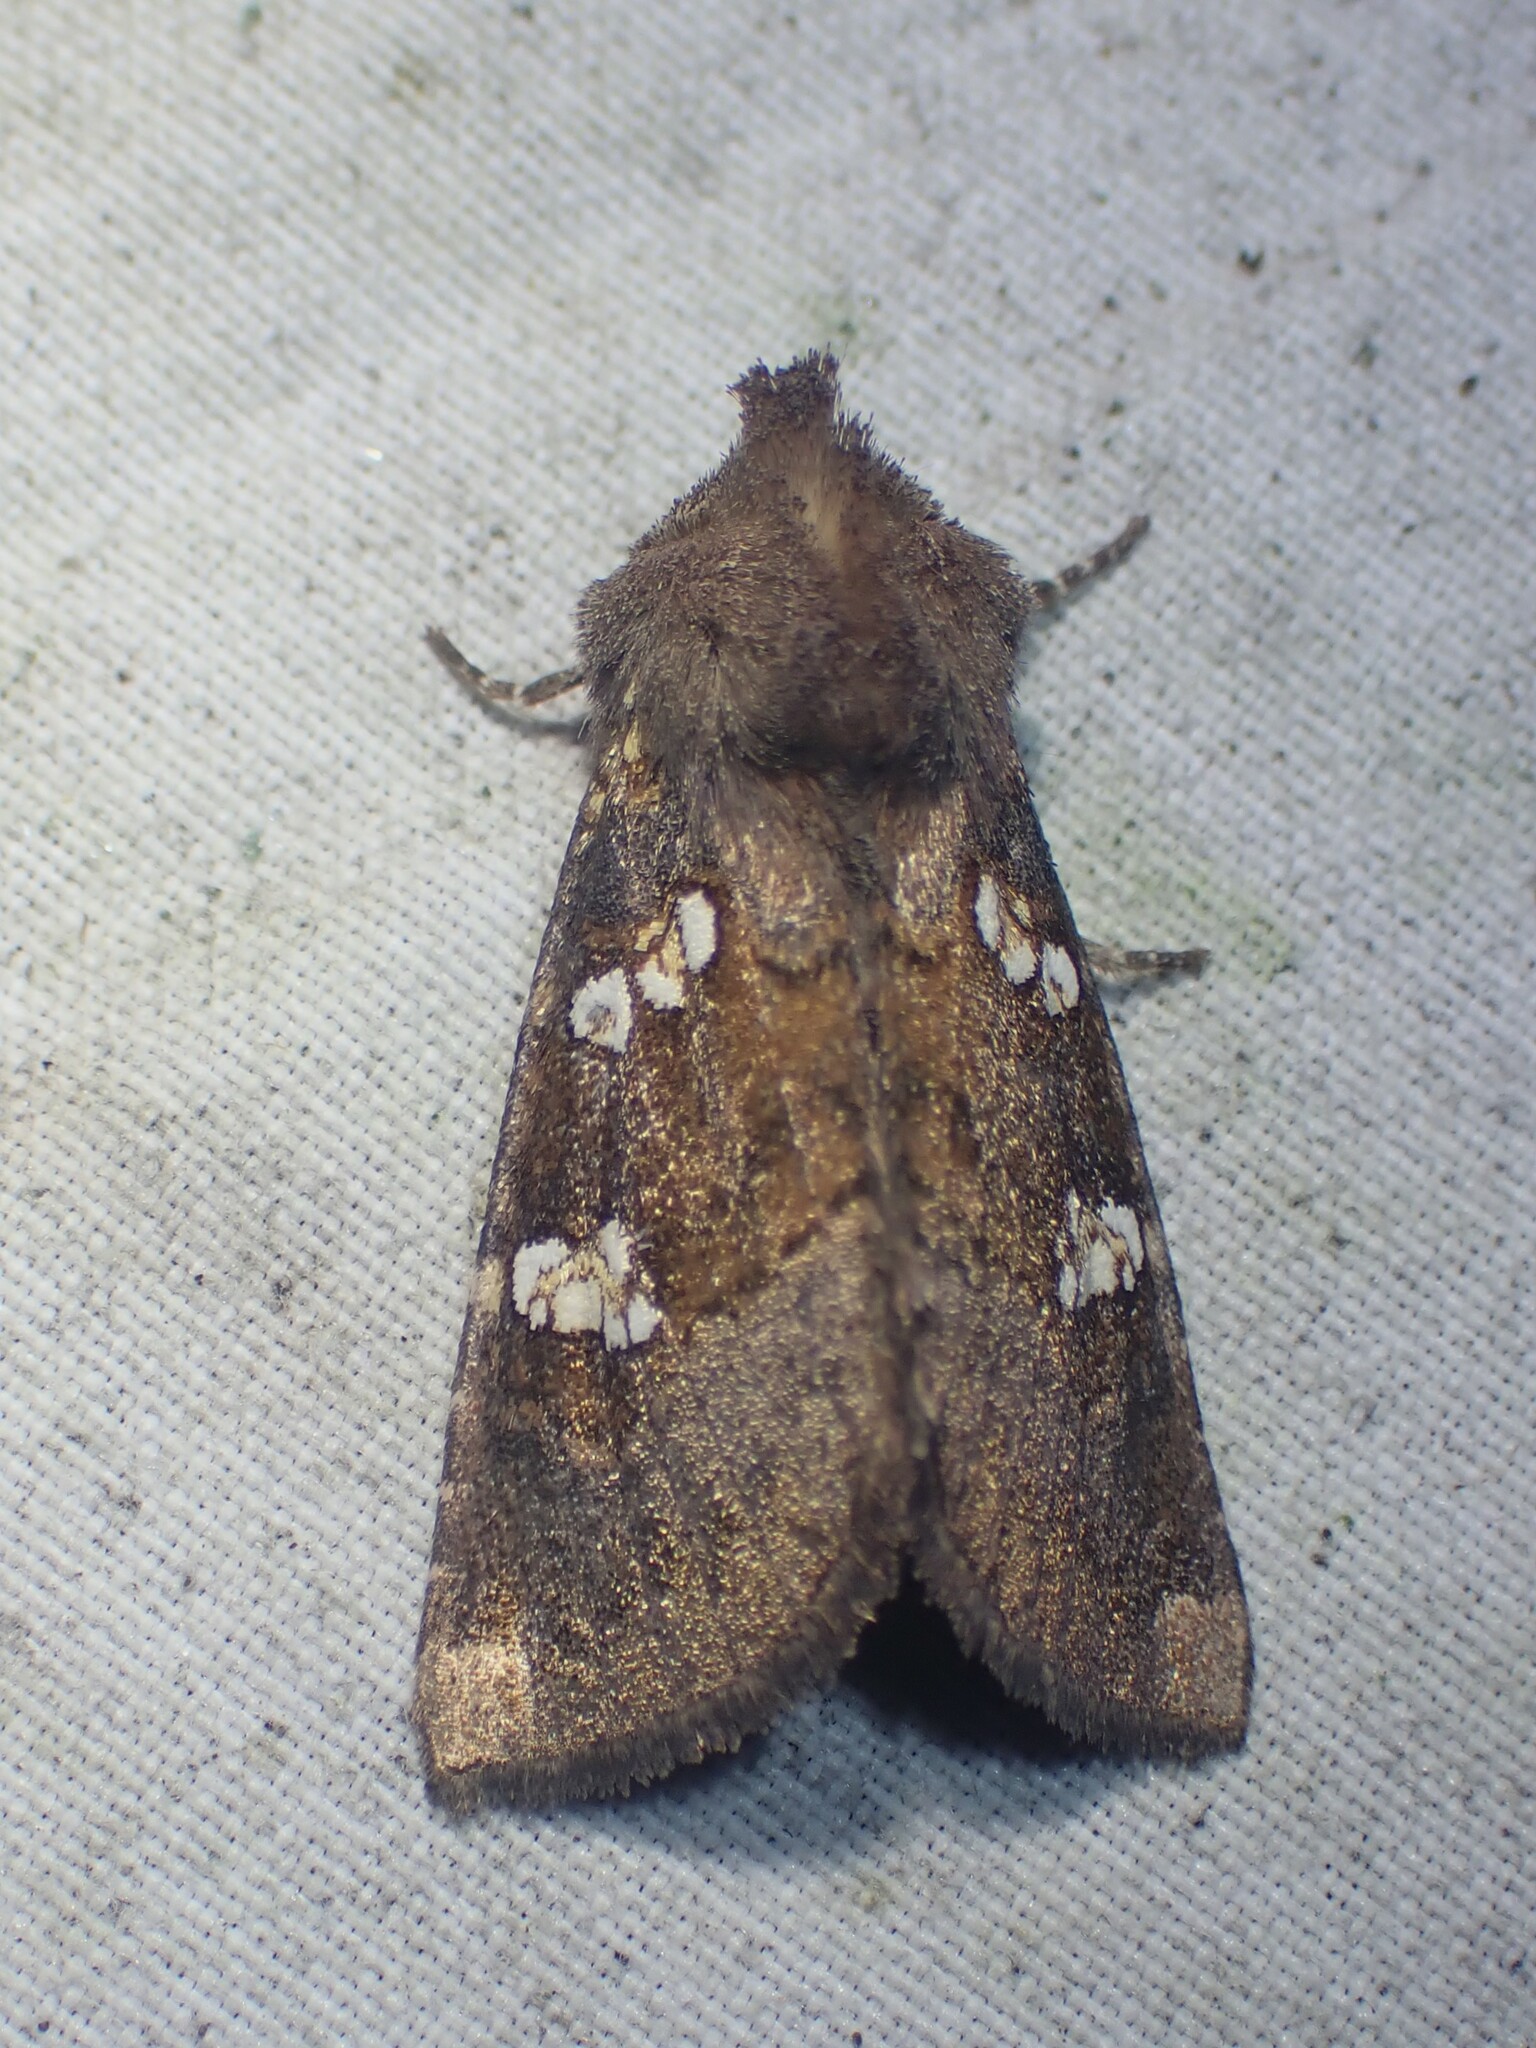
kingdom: Animalia
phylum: Arthropoda
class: Insecta
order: Lepidoptera
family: Noctuidae
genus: Papaipema
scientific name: Papaipema unimoda
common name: Meadow rue borer moth
